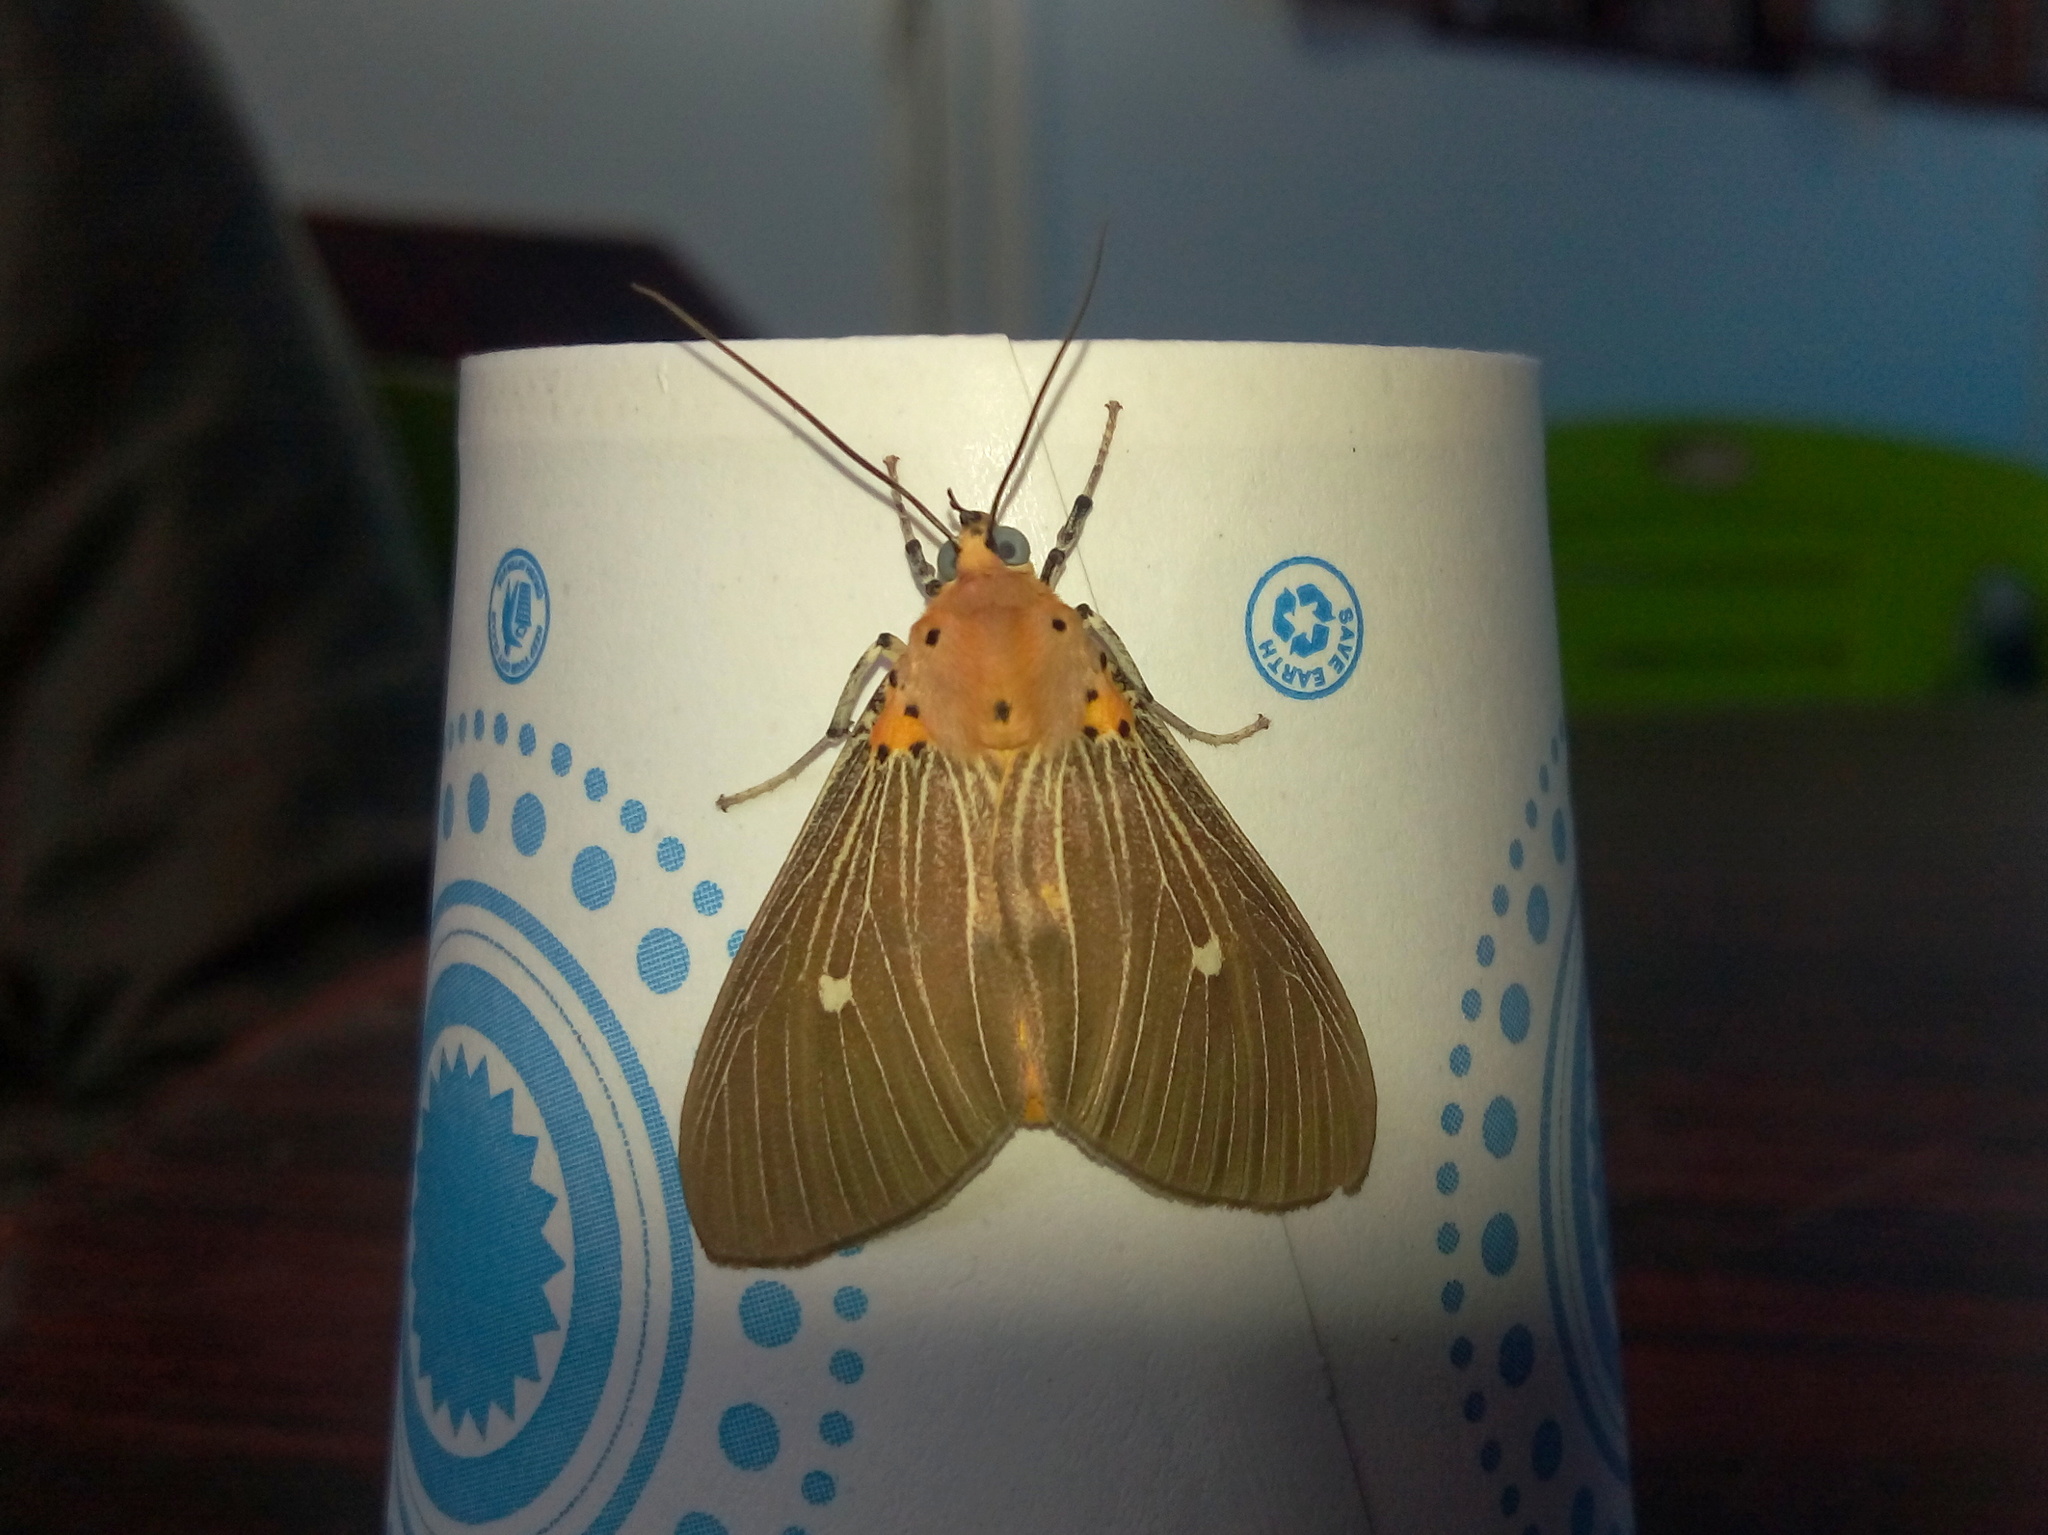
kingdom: Animalia
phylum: Arthropoda
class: Insecta
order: Lepidoptera
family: Erebidae
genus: Asota
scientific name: Asota caricae
